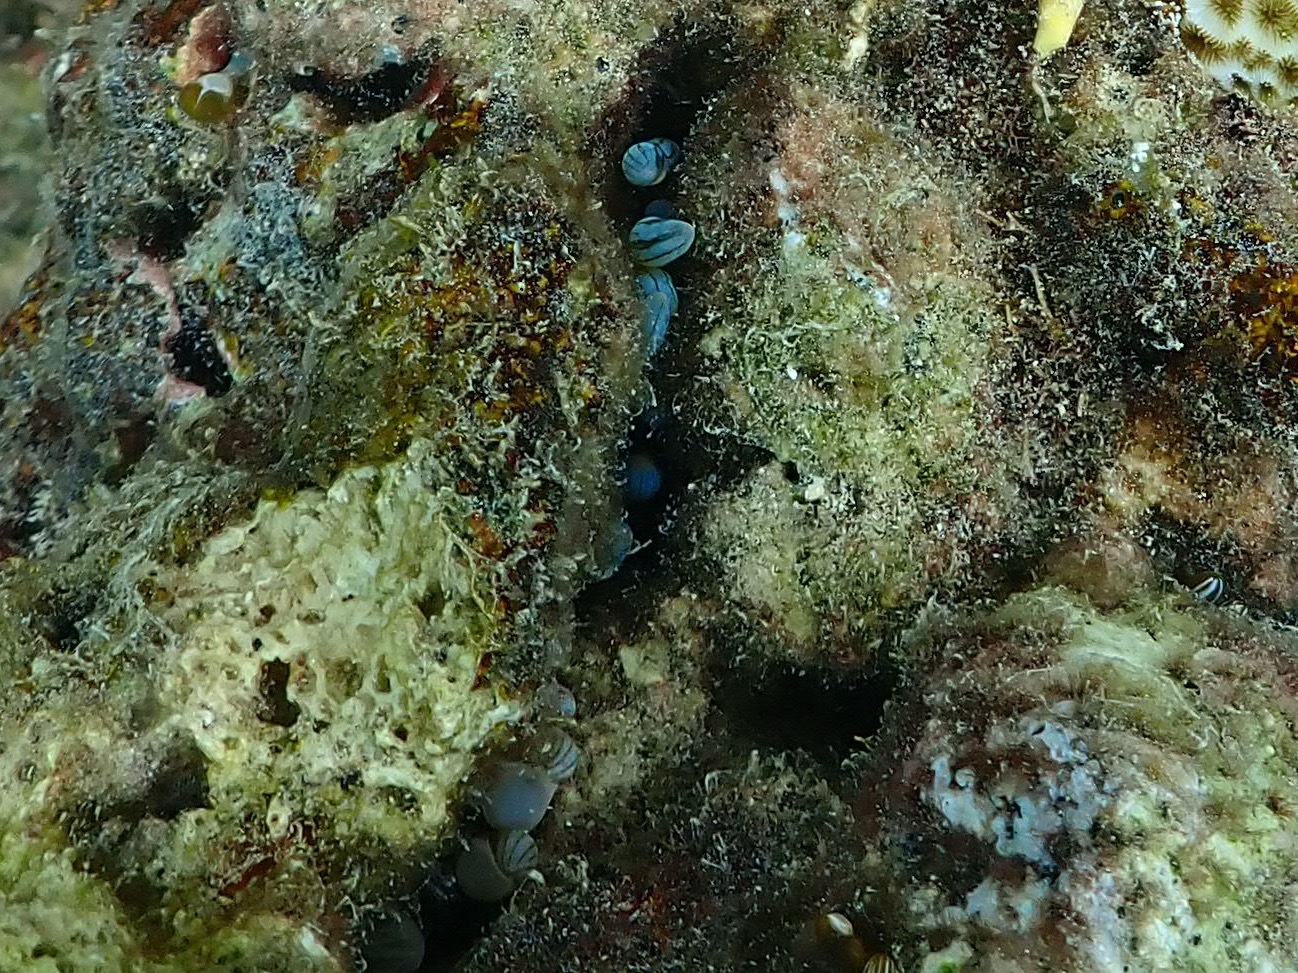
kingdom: Animalia
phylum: Cnidaria
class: Anthozoa
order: Actiniaria
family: Aliciidae
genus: Lebrunia
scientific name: Lebrunia coralligens
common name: Hidden anemone
